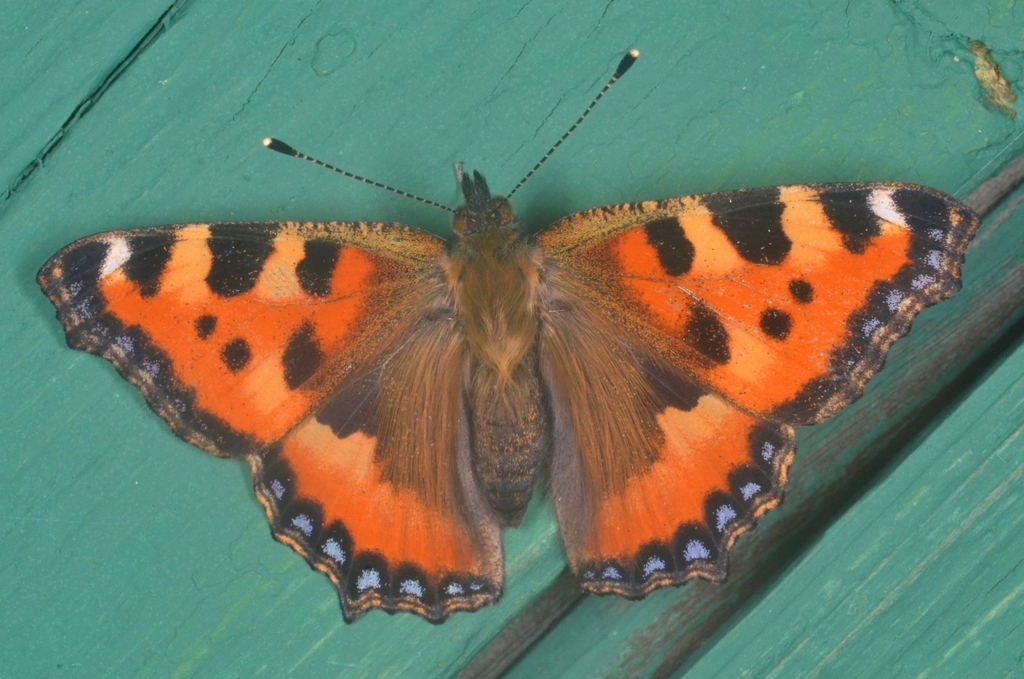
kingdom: Animalia
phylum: Arthropoda
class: Insecta
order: Lepidoptera
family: Nymphalidae
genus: Aglais
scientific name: Aglais urticae
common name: Small tortoiseshell
